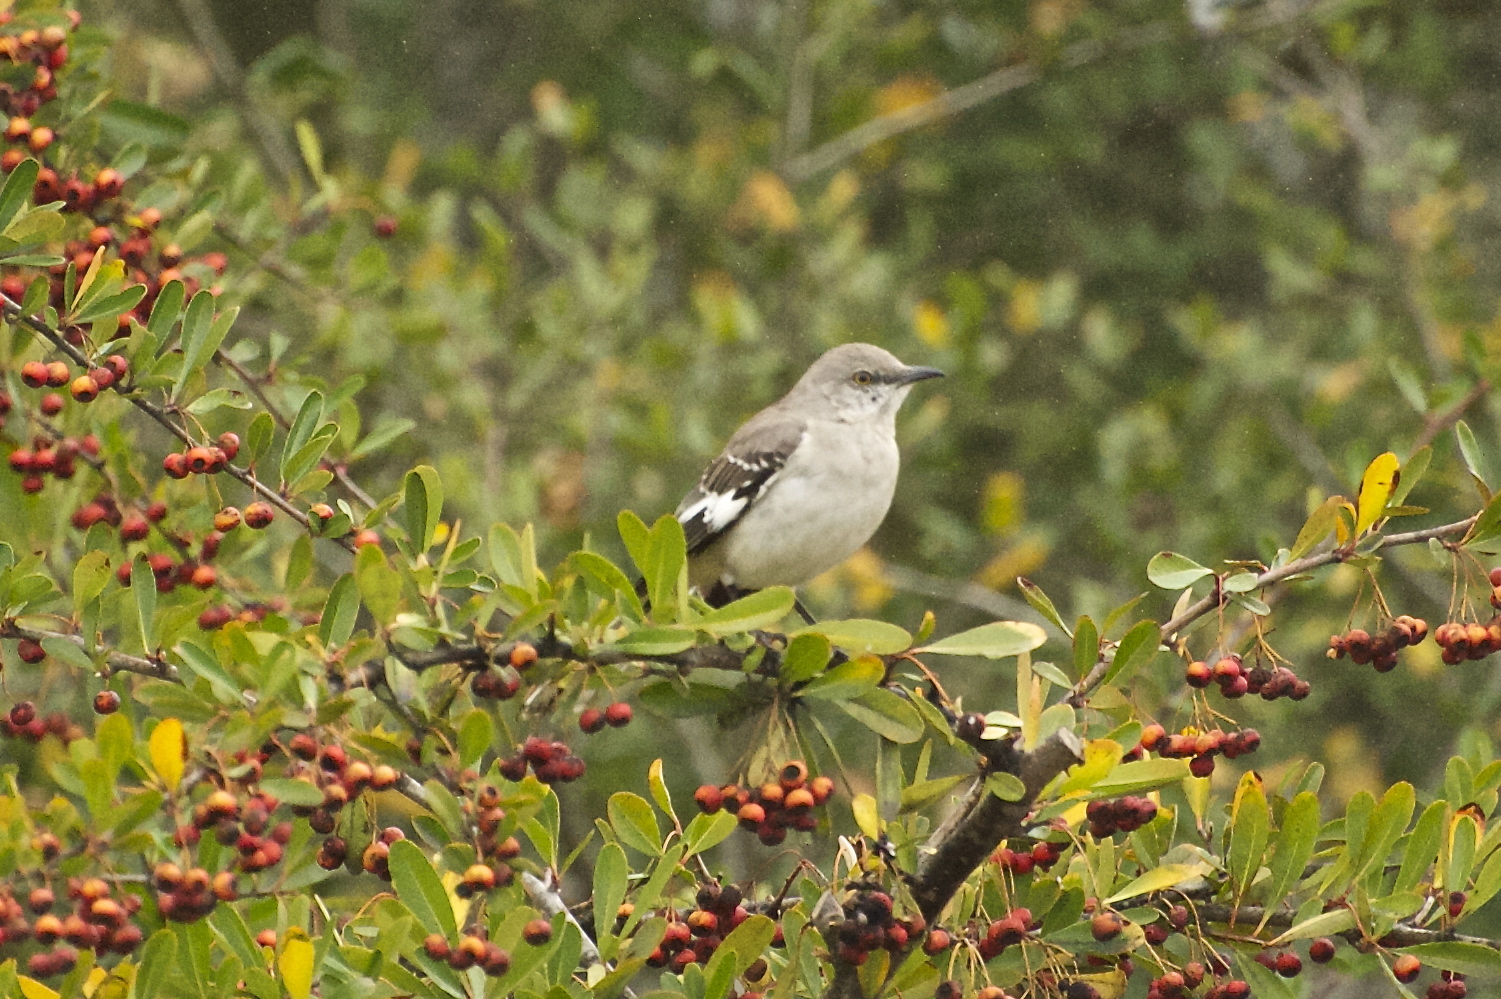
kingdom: Animalia
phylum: Chordata
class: Aves
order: Passeriformes
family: Mimidae
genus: Mimus
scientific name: Mimus polyglottos
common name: Northern mockingbird
